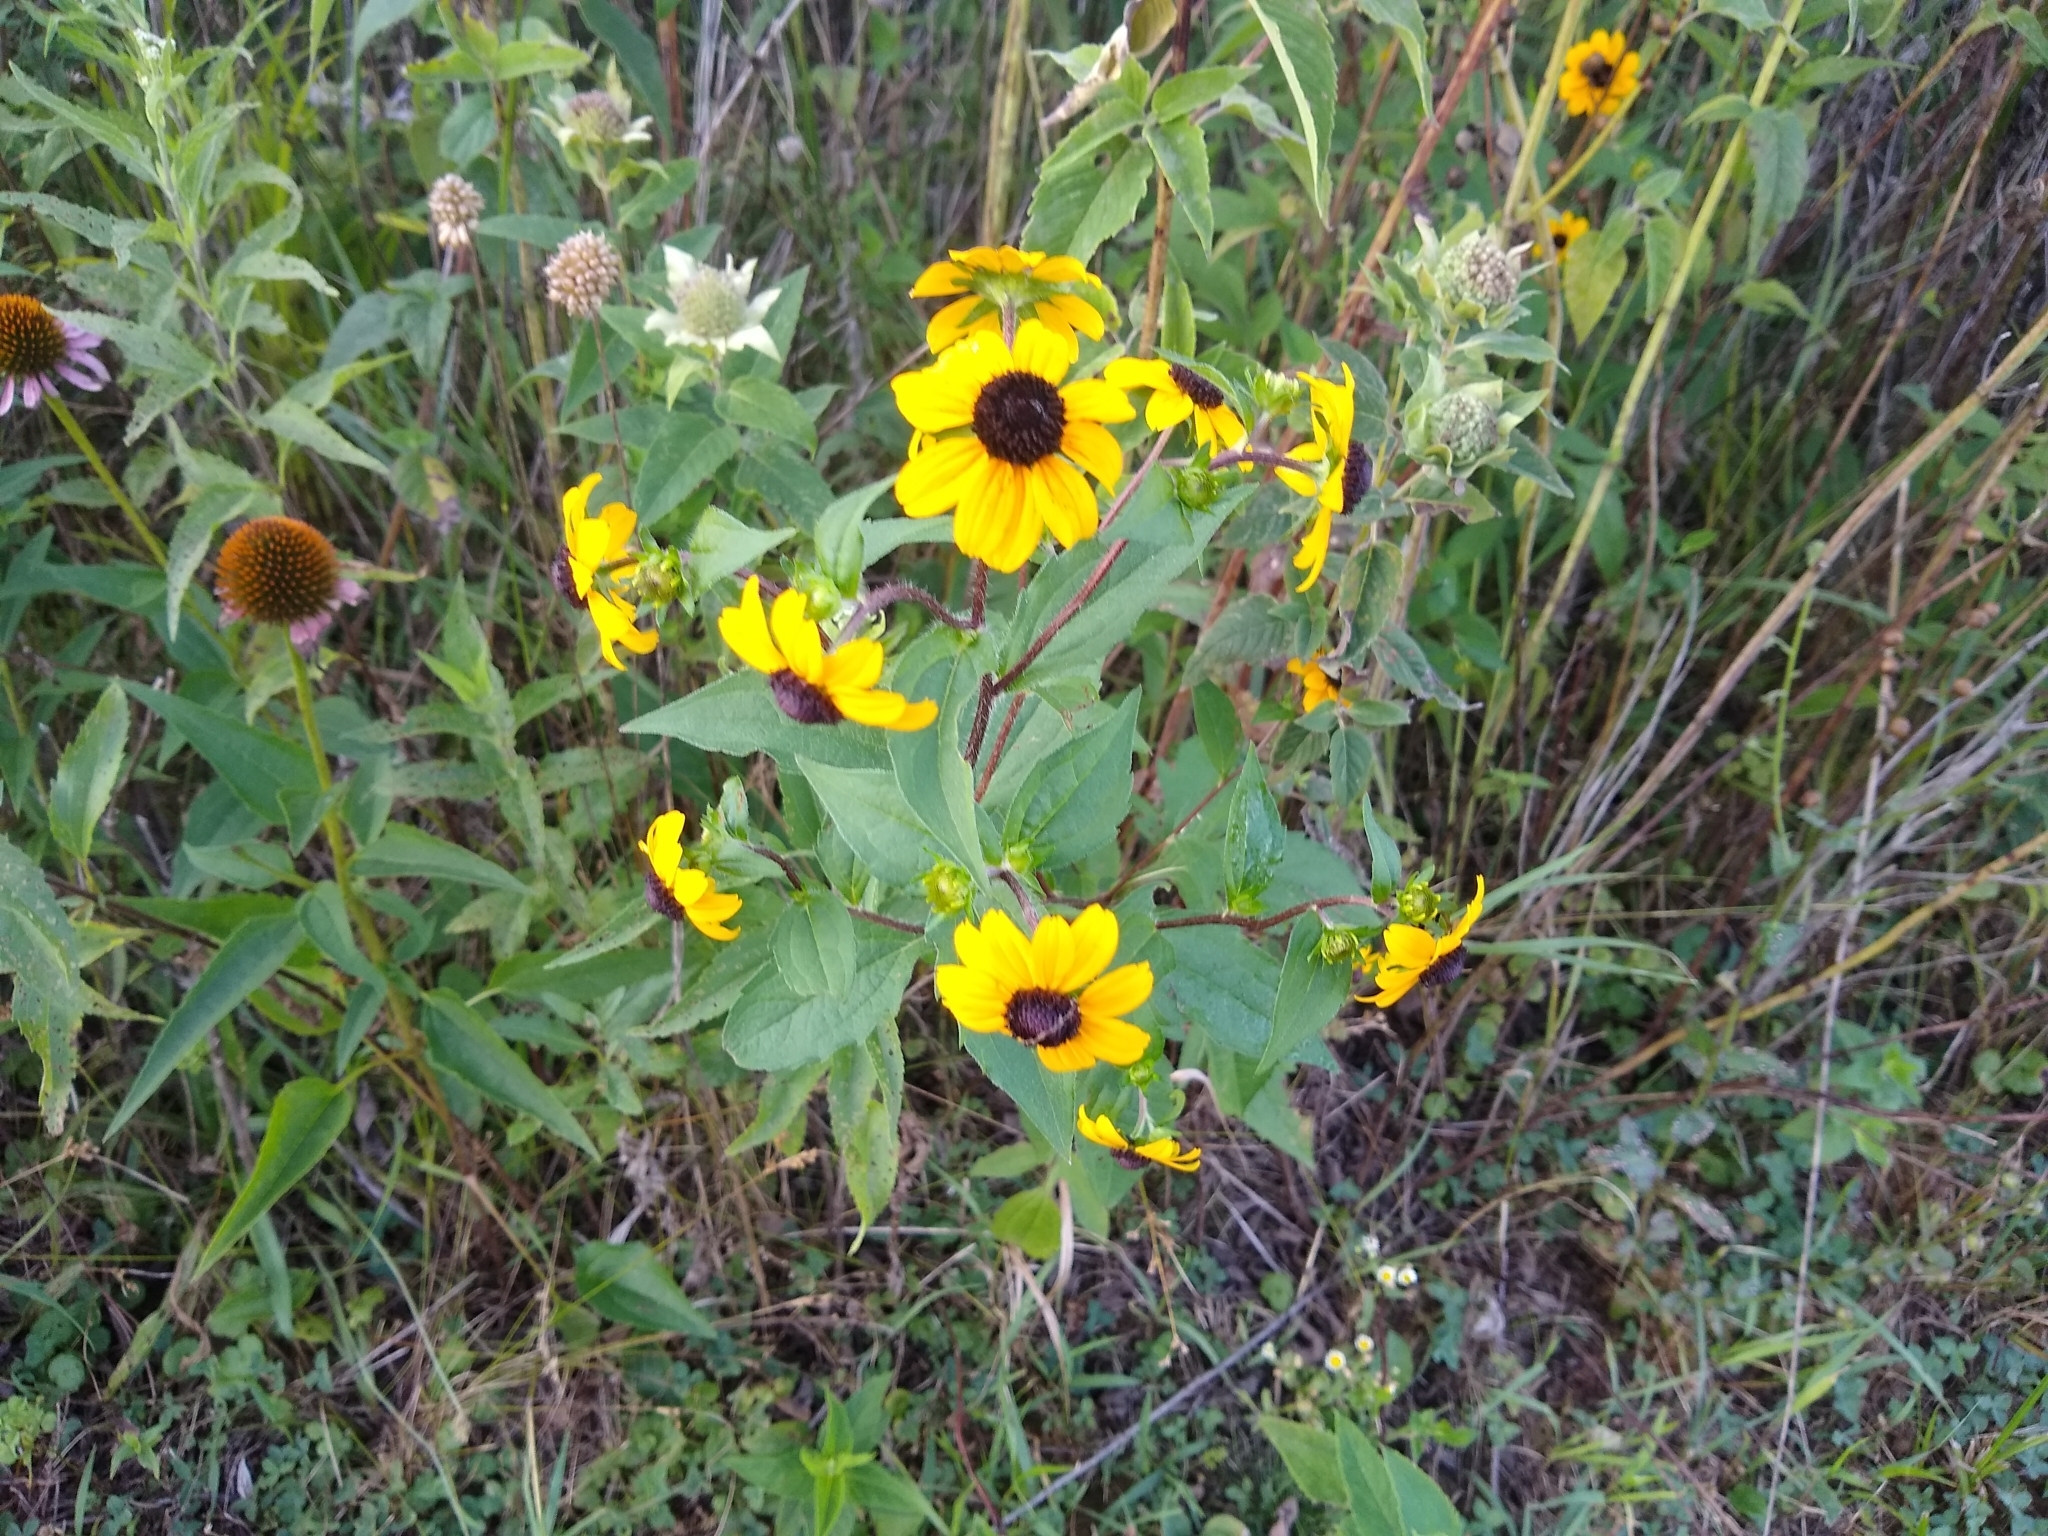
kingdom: Plantae
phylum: Tracheophyta
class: Magnoliopsida
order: Asterales
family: Asteraceae
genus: Rudbeckia
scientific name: Rudbeckia triloba
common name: Thin-leaved coneflower
